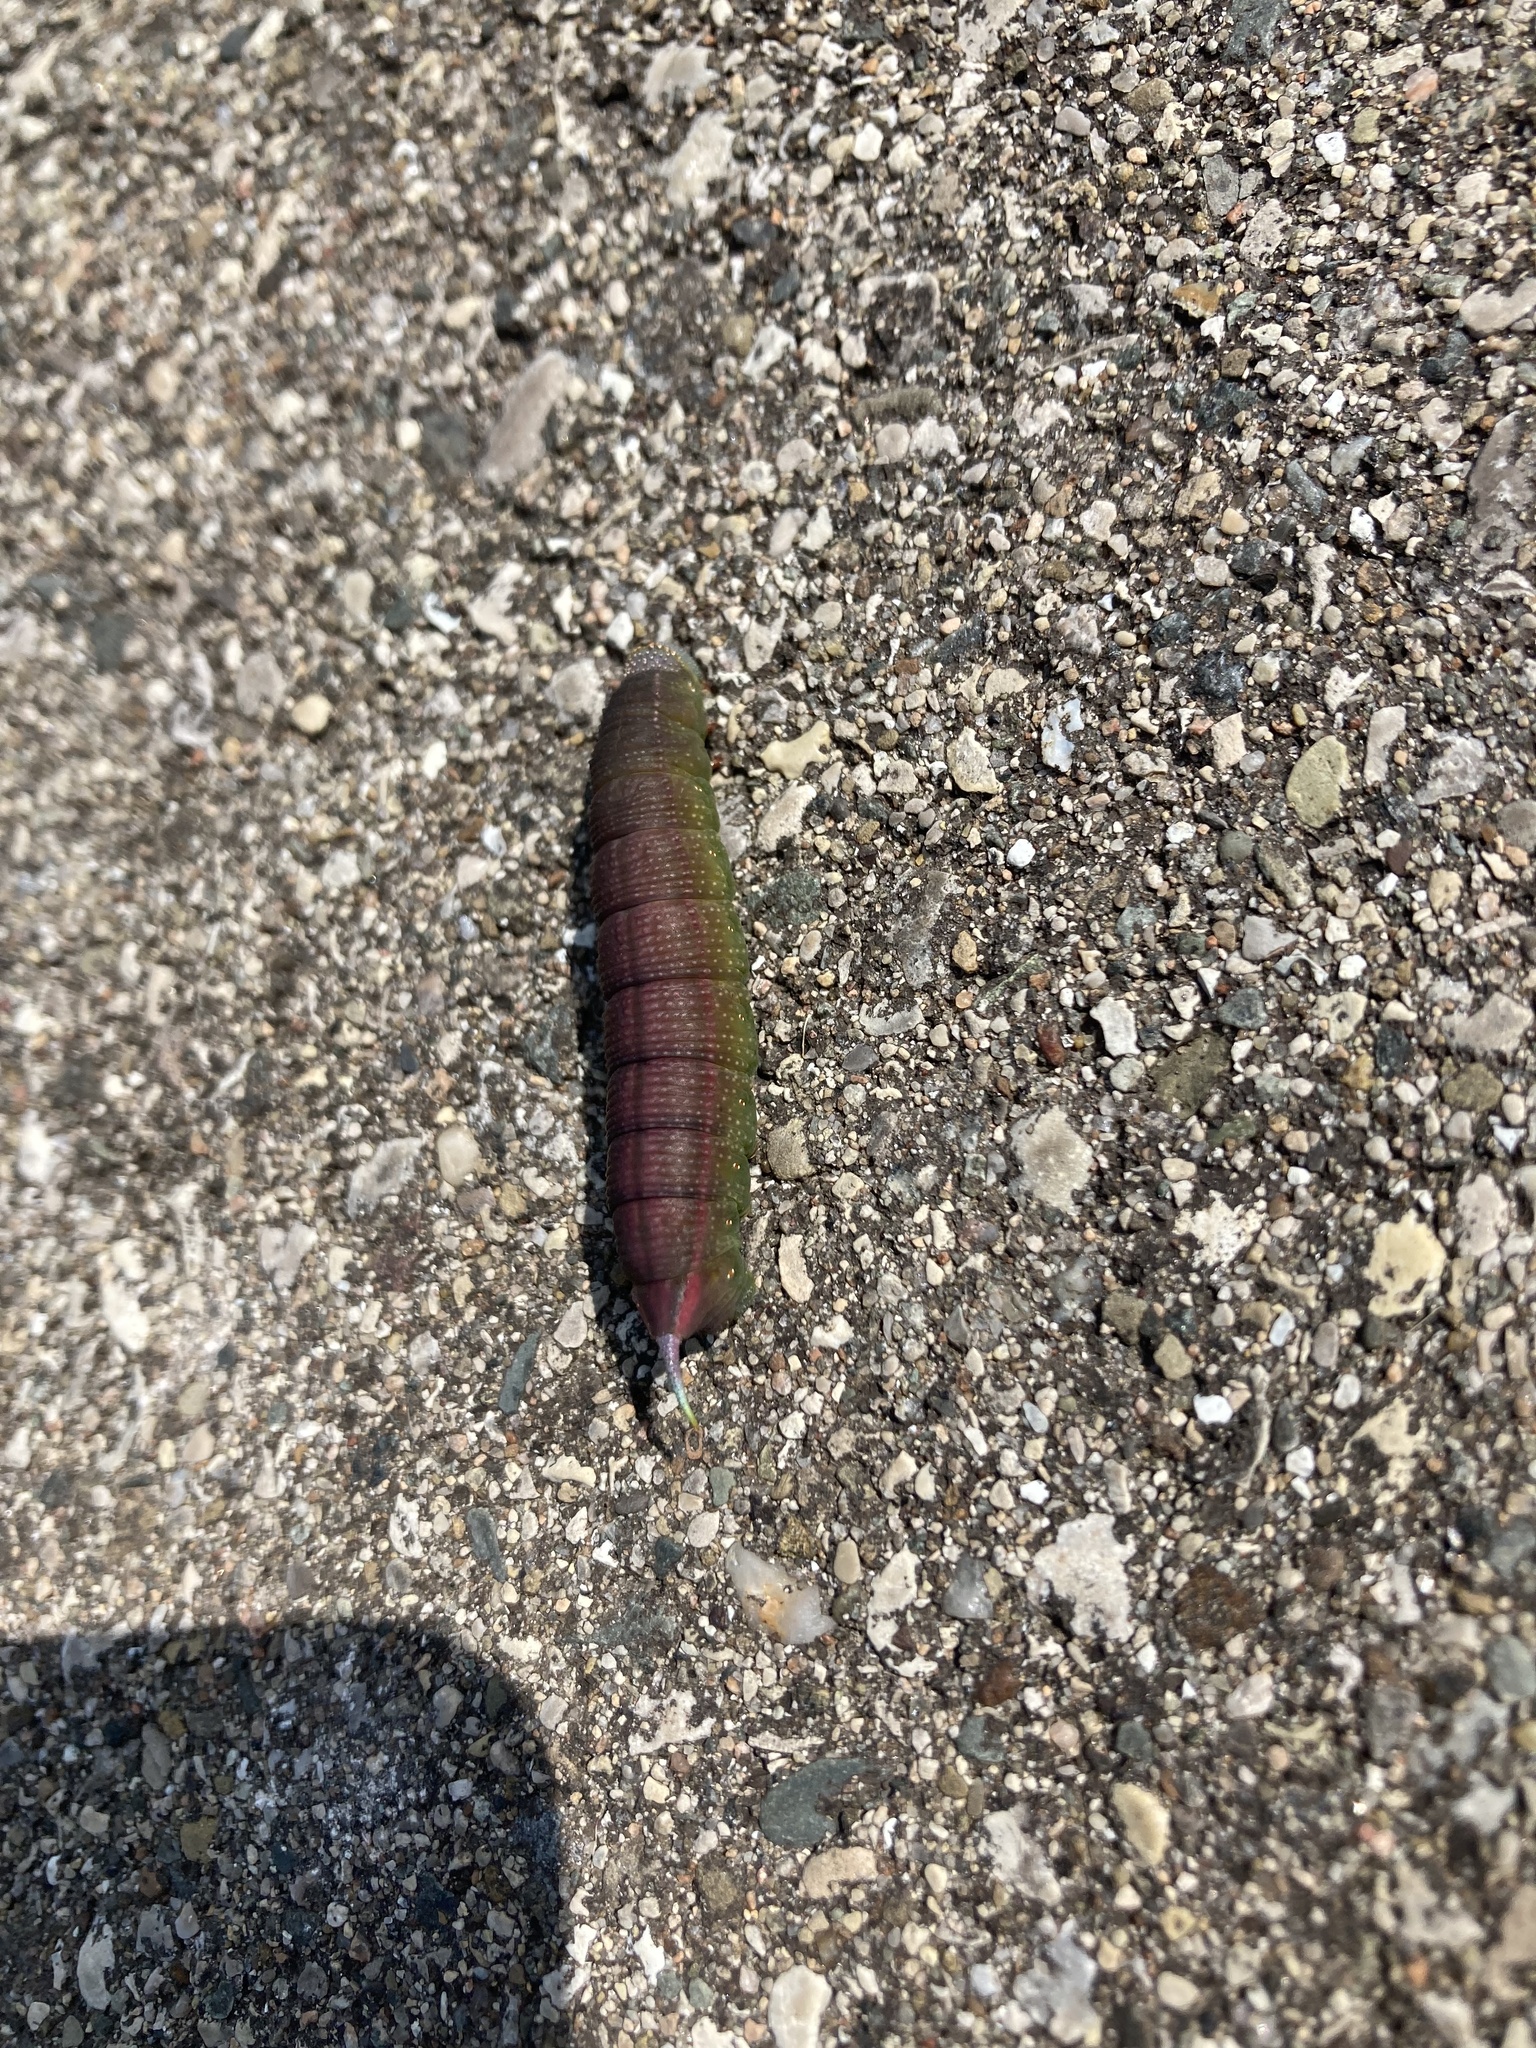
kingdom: Animalia
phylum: Arthropoda
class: Insecta
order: Lepidoptera
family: Sphingidae
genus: Hemaris
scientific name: Hemaris thysbe
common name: Common clear-wing
